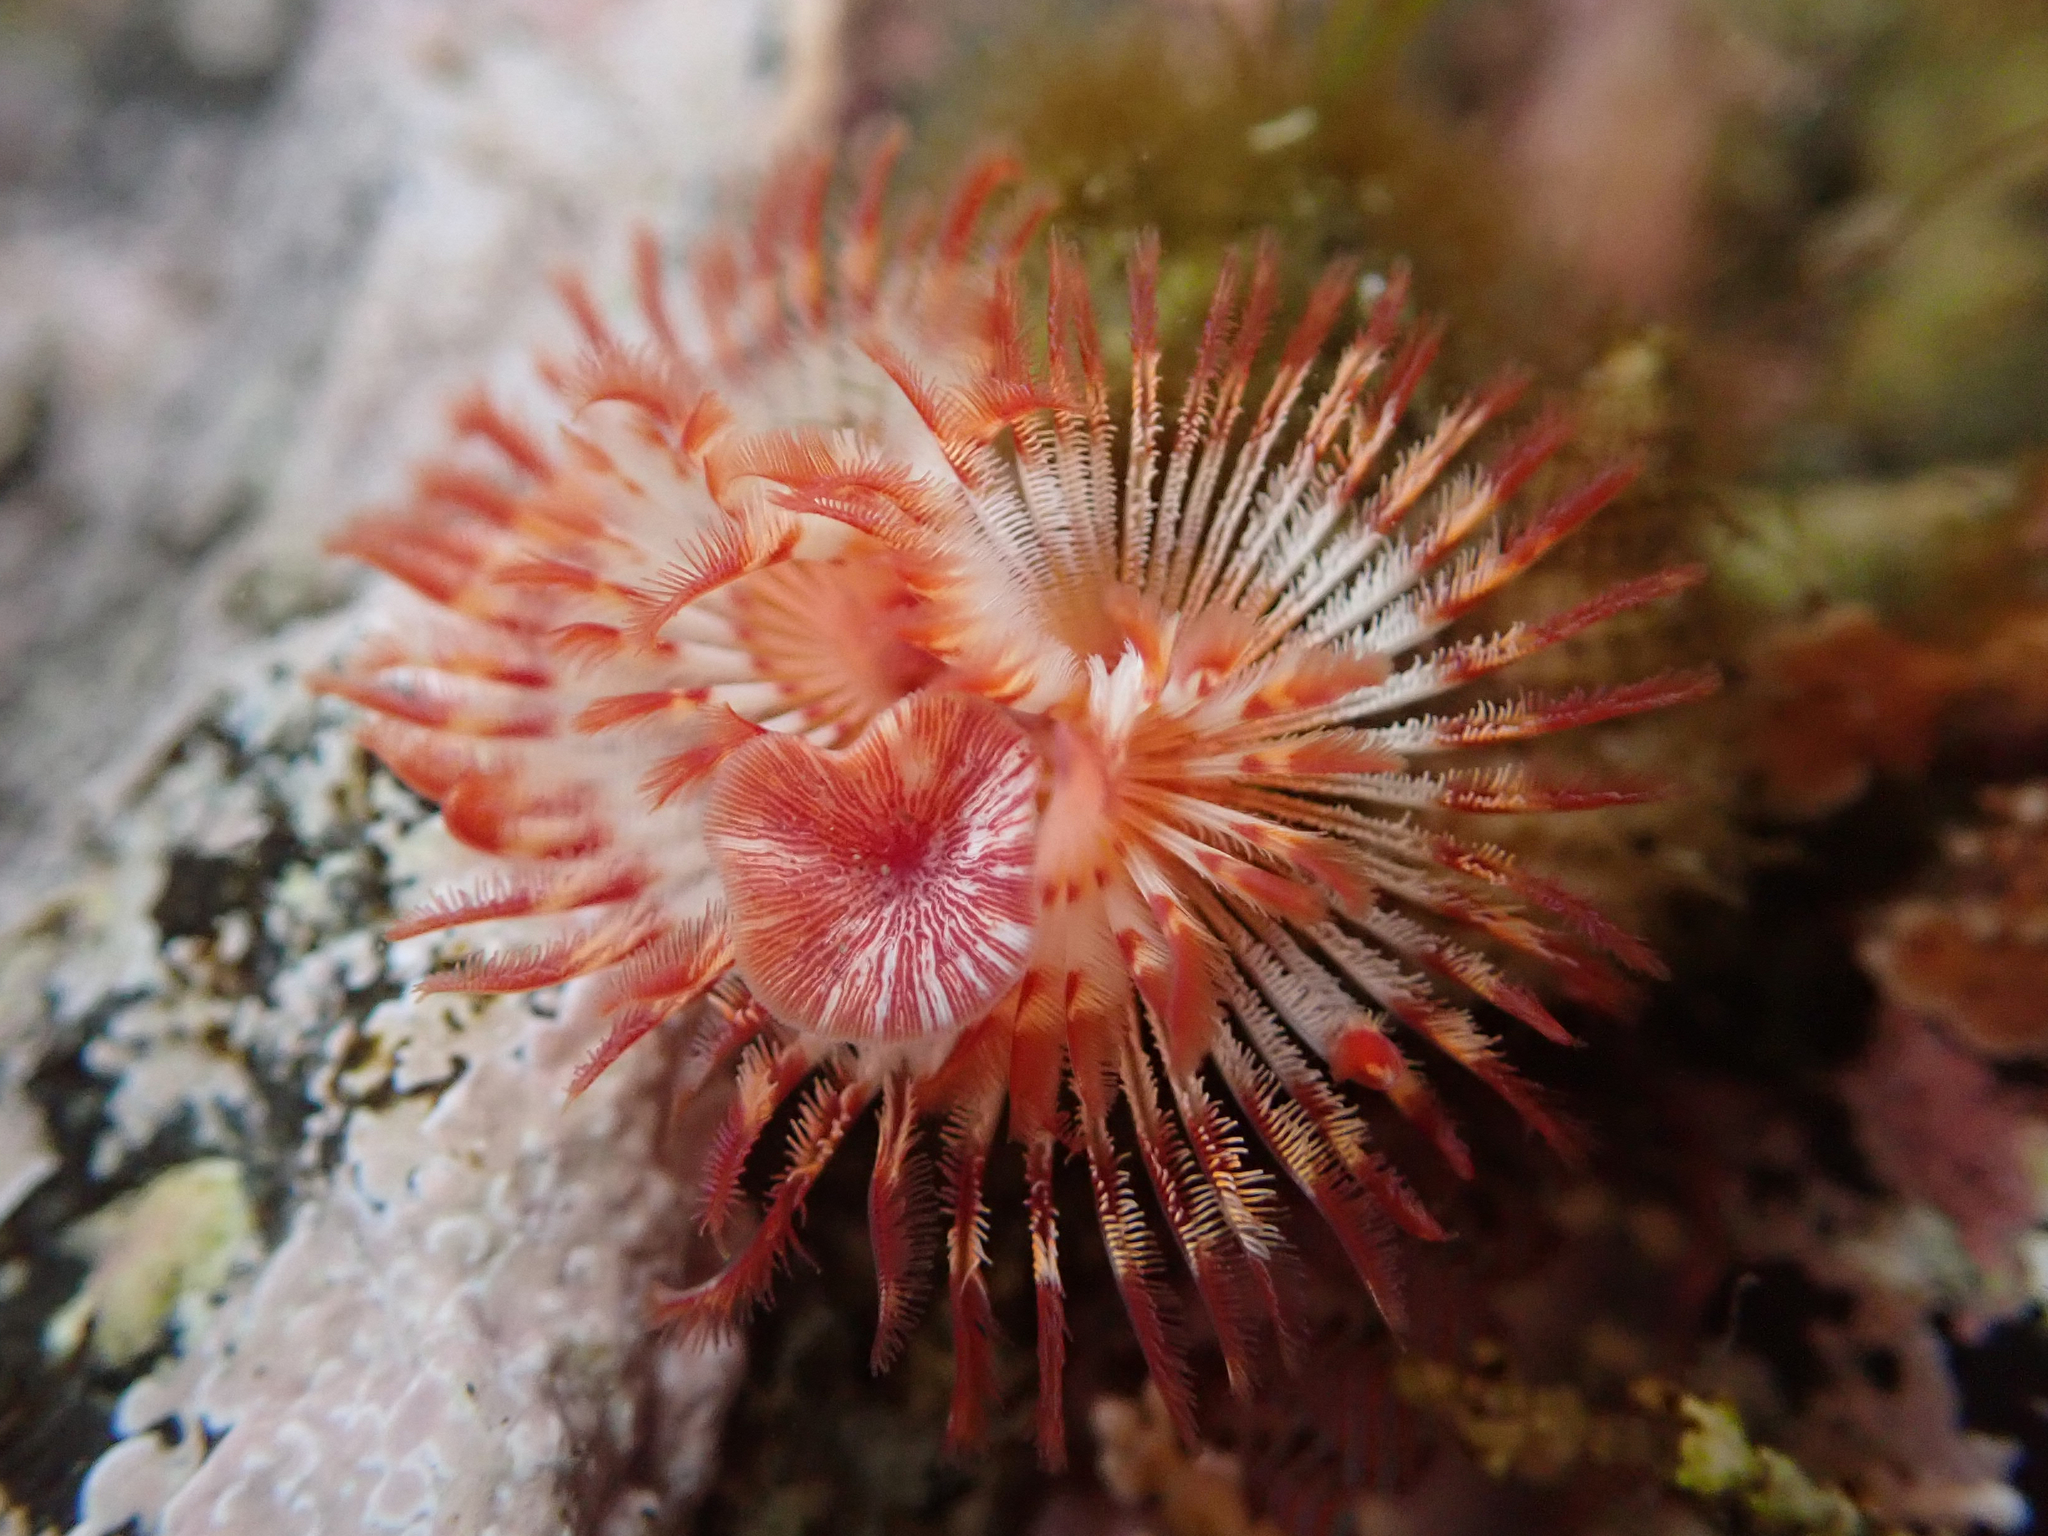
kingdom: Animalia
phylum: Annelida
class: Polychaeta
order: Sabellida
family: Serpulidae
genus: Serpula
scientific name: Serpula columbiana
